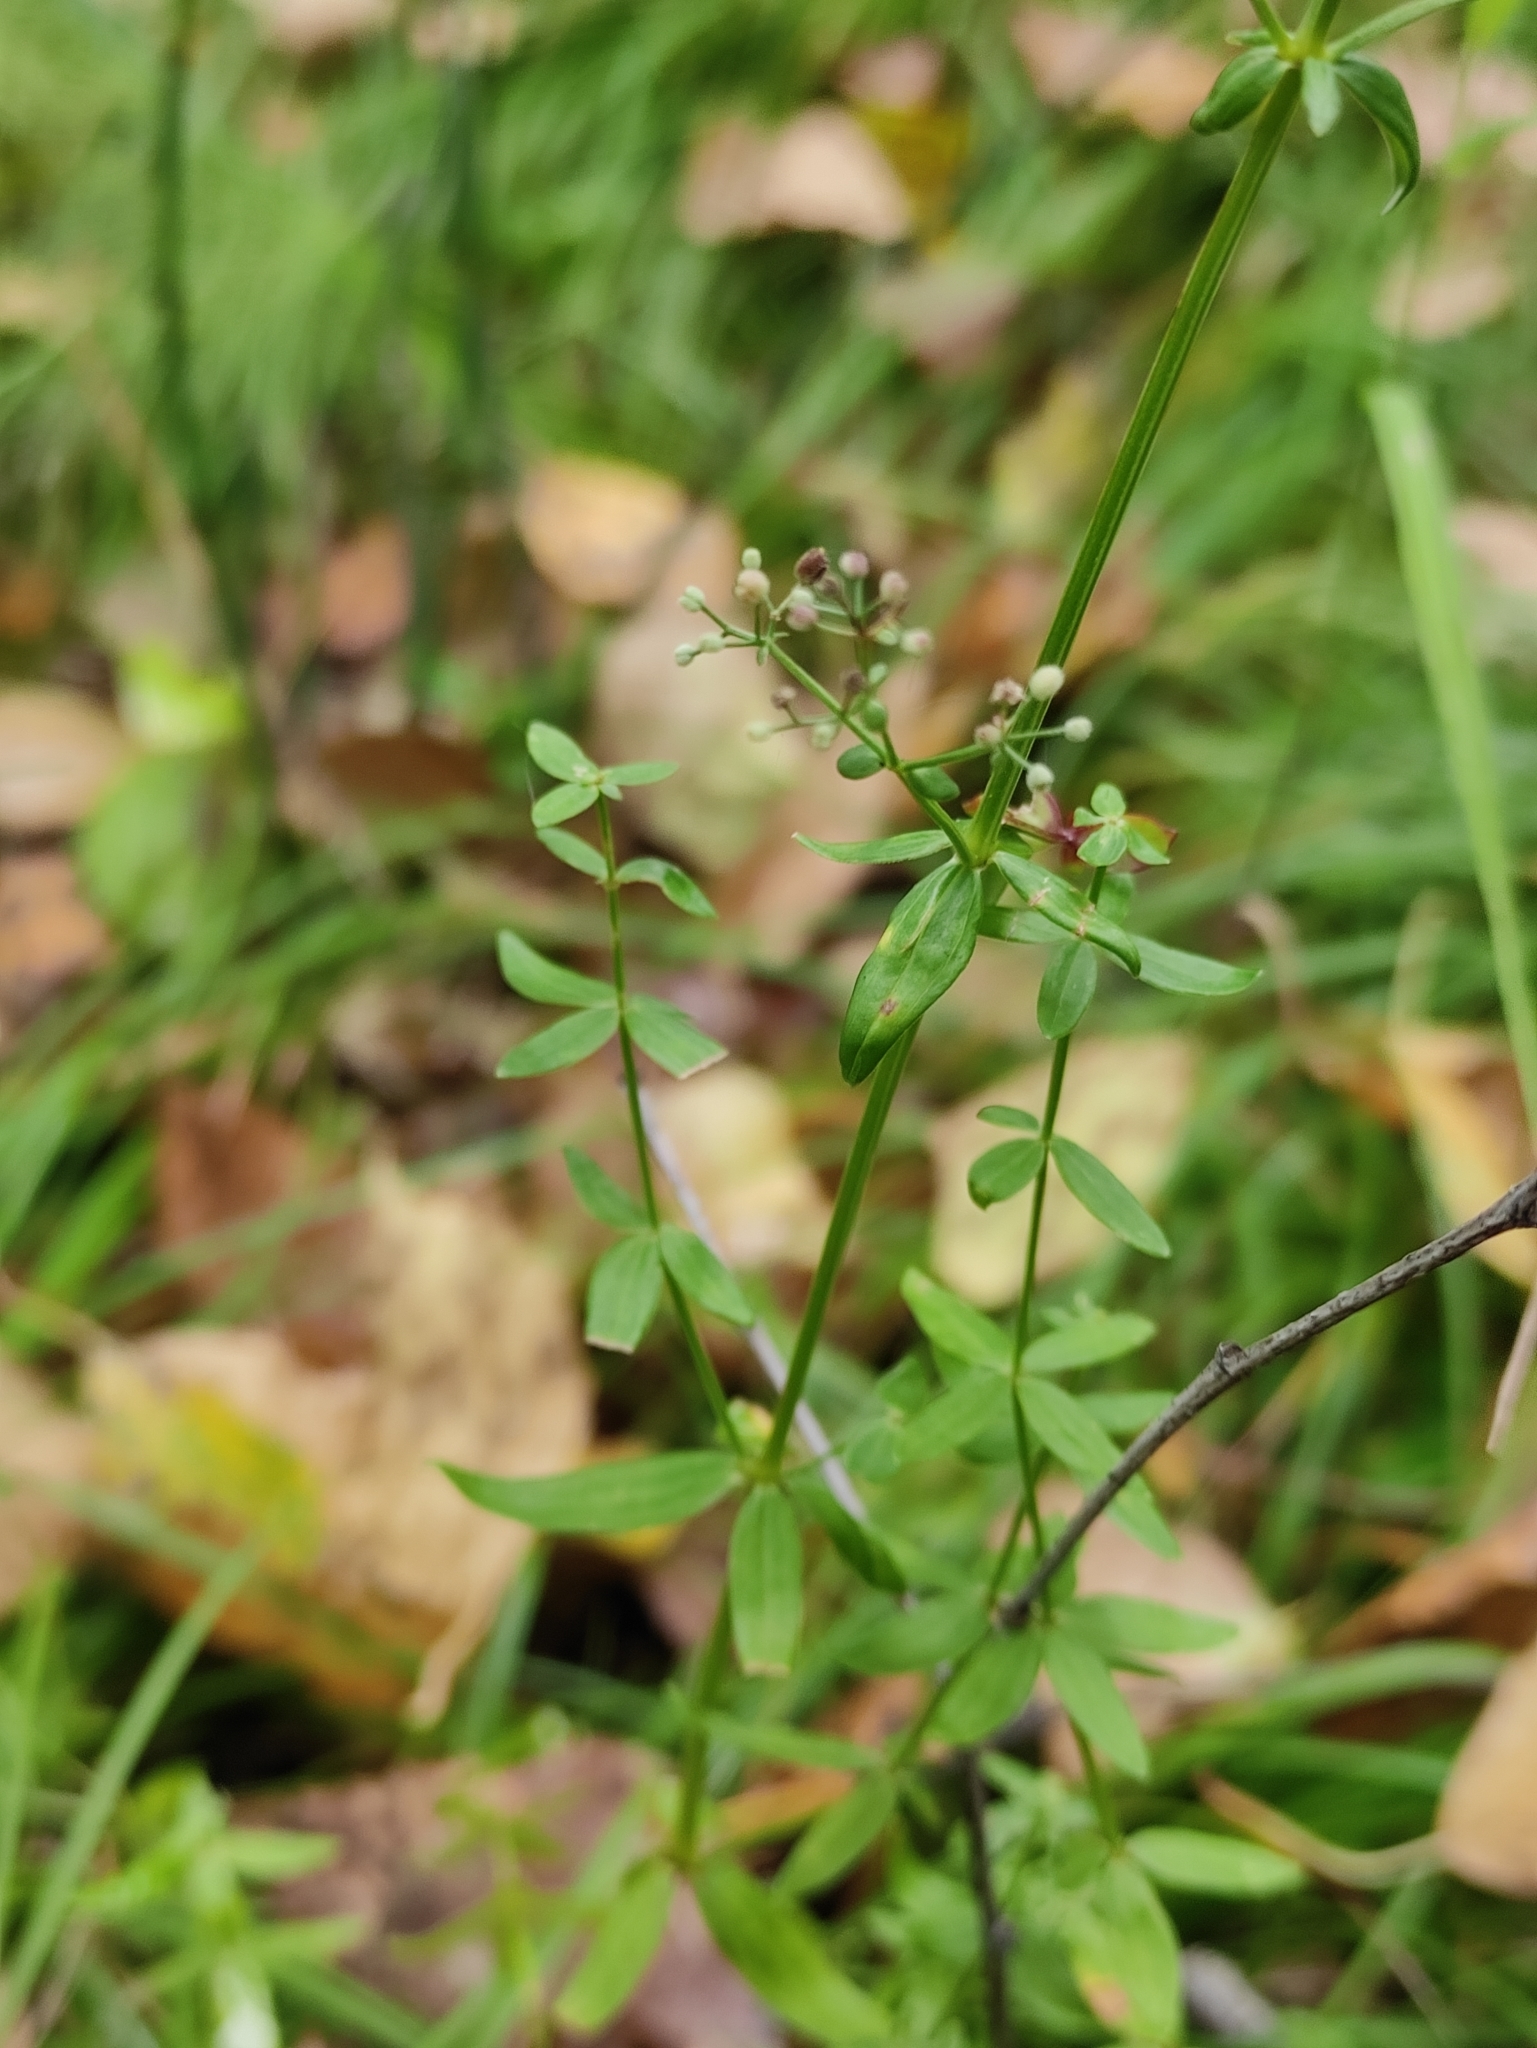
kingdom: Plantae
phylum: Tracheophyta
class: Magnoliopsida
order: Gentianales
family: Rubiaceae
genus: Galium
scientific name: Galium boreale
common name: Northern bedstraw
